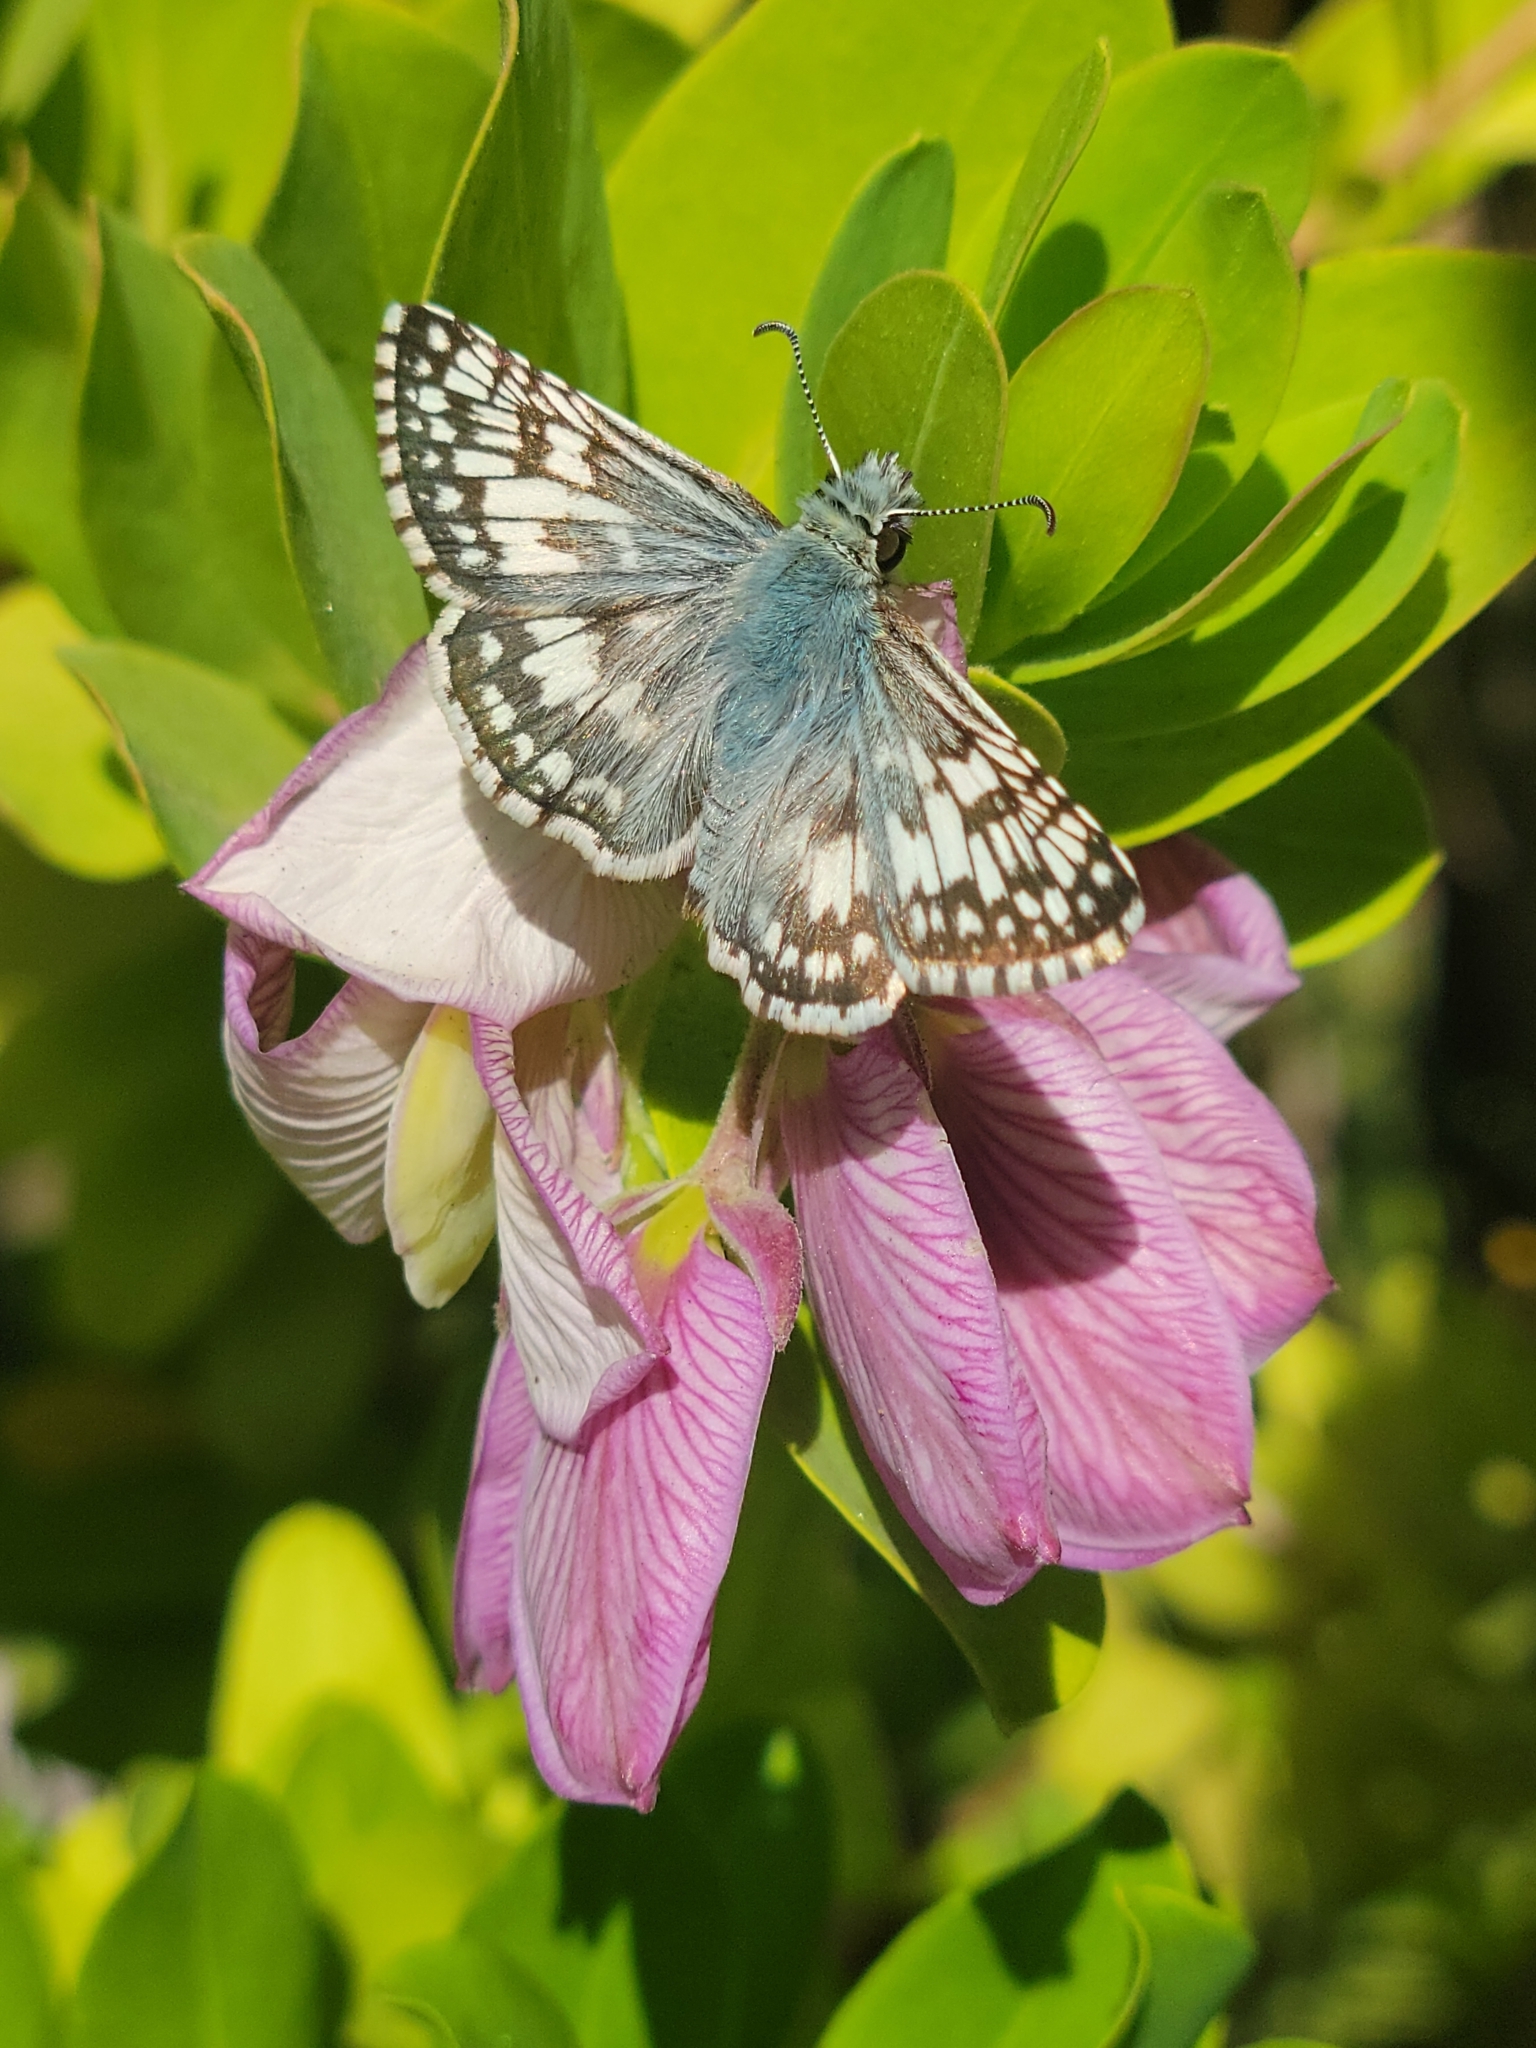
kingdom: Animalia
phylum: Arthropoda
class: Insecta
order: Lepidoptera
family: Hesperiidae
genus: Burnsius
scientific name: Burnsius albezens
